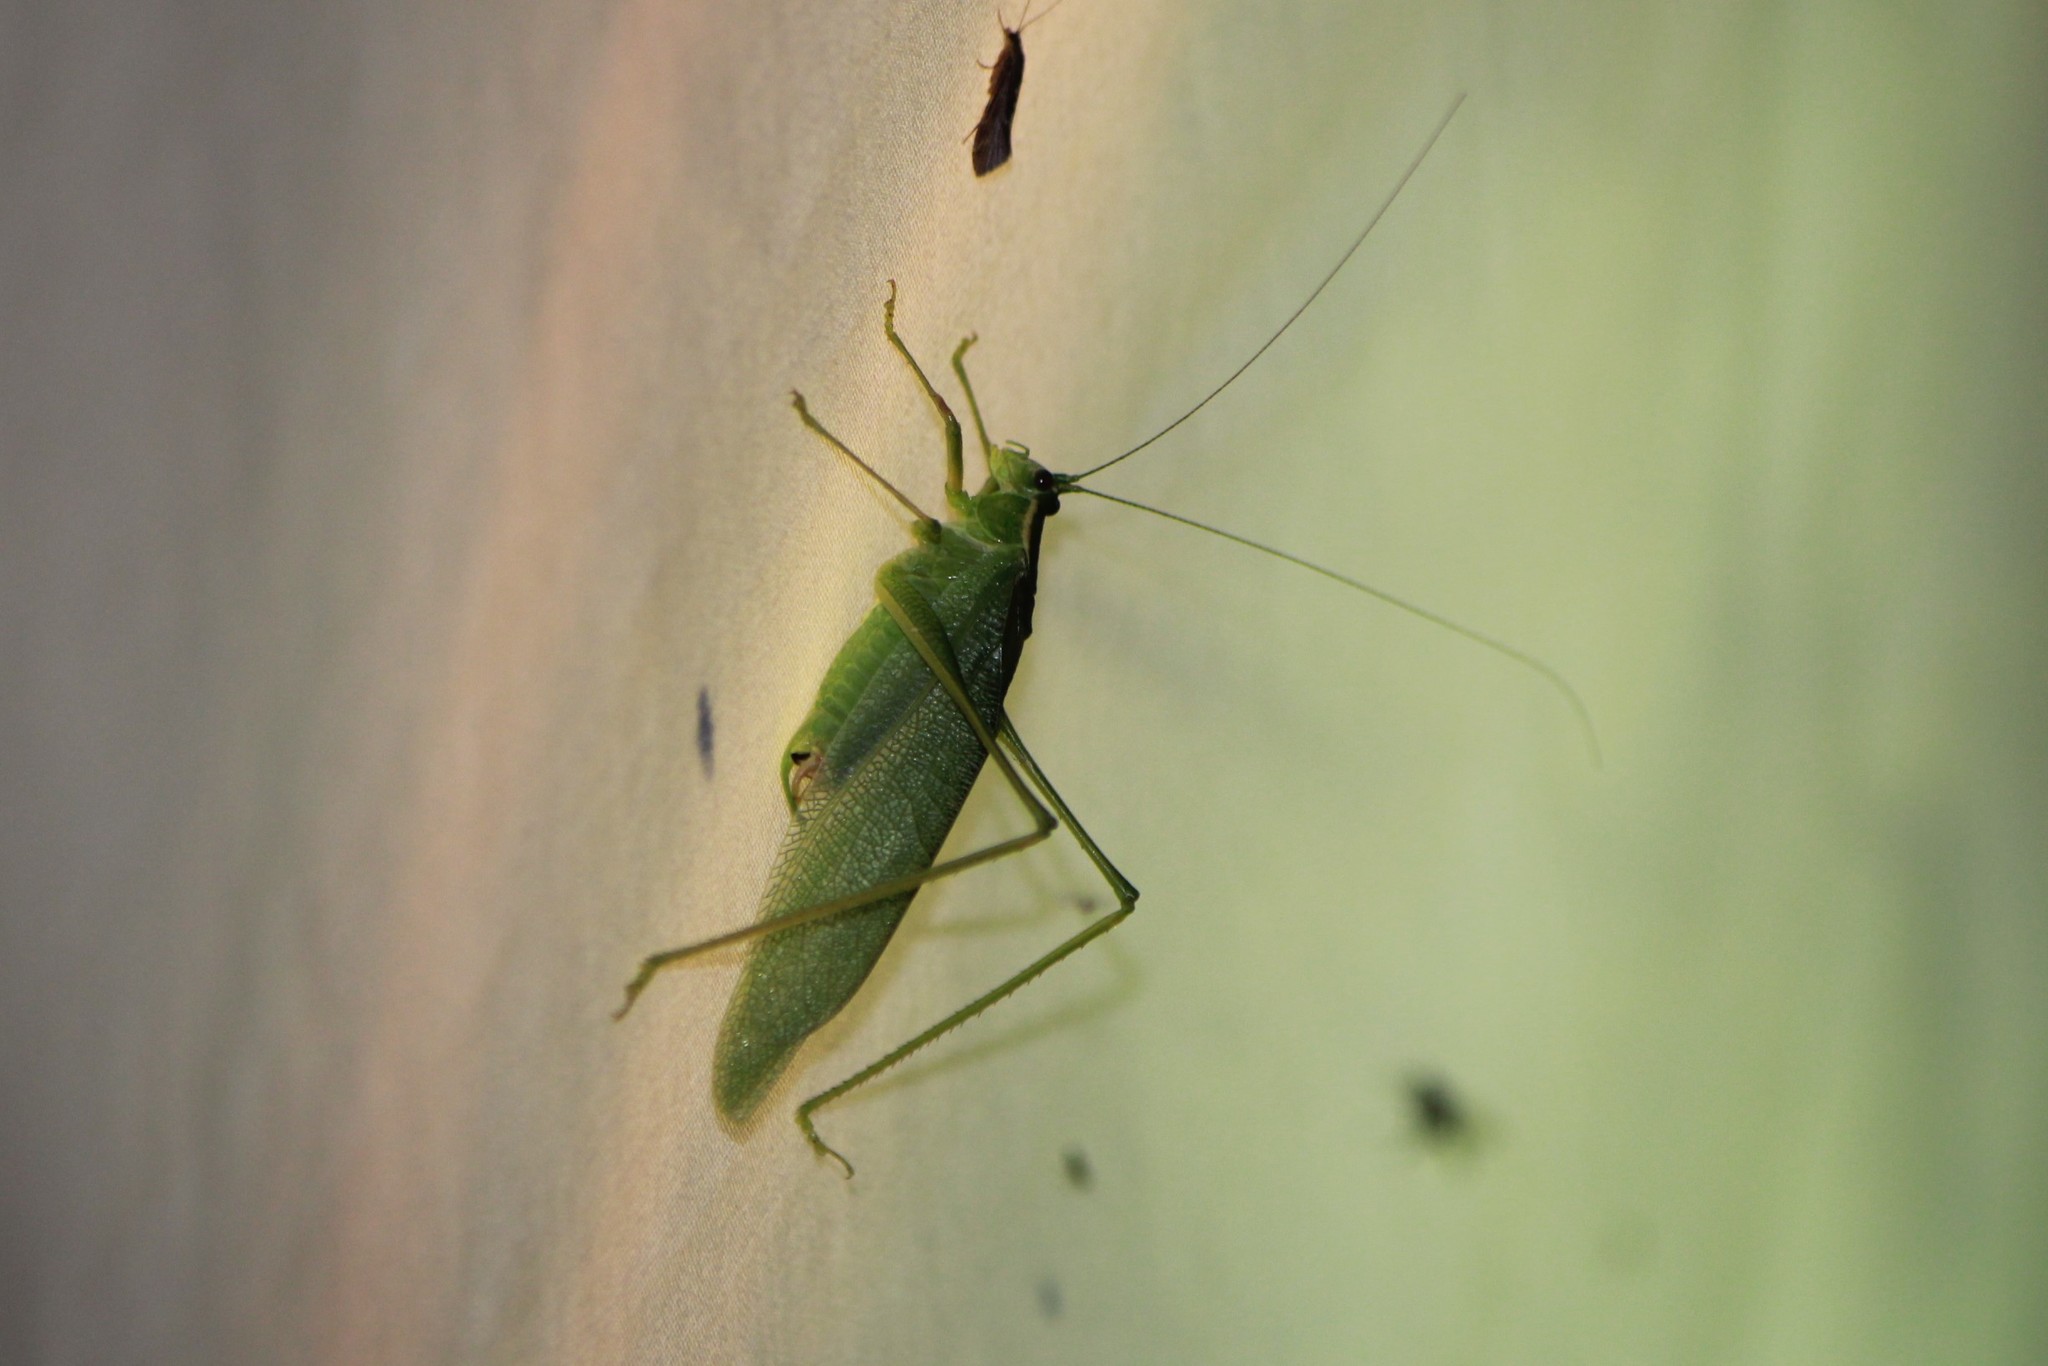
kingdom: Animalia
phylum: Arthropoda
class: Insecta
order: Orthoptera
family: Tettigoniidae
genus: Scudderia
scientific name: Scudderia septentrionalis
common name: Northern bush-katydid
